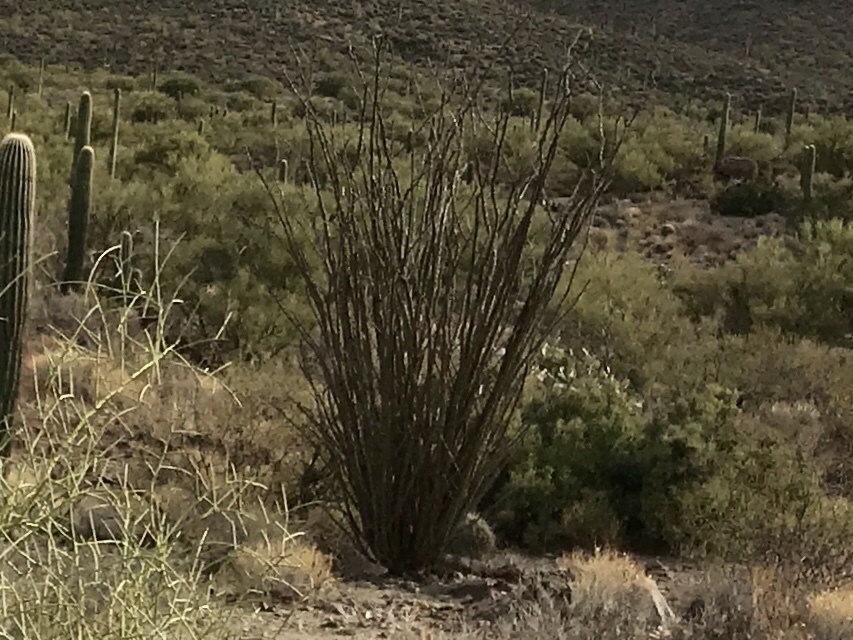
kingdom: Plantae
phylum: Tracheophyta
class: Magnoliopsida
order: Ericales
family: Fouquieriaceae
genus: Fouquieria
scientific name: Fouquieria splendens
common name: Vine-cactus
